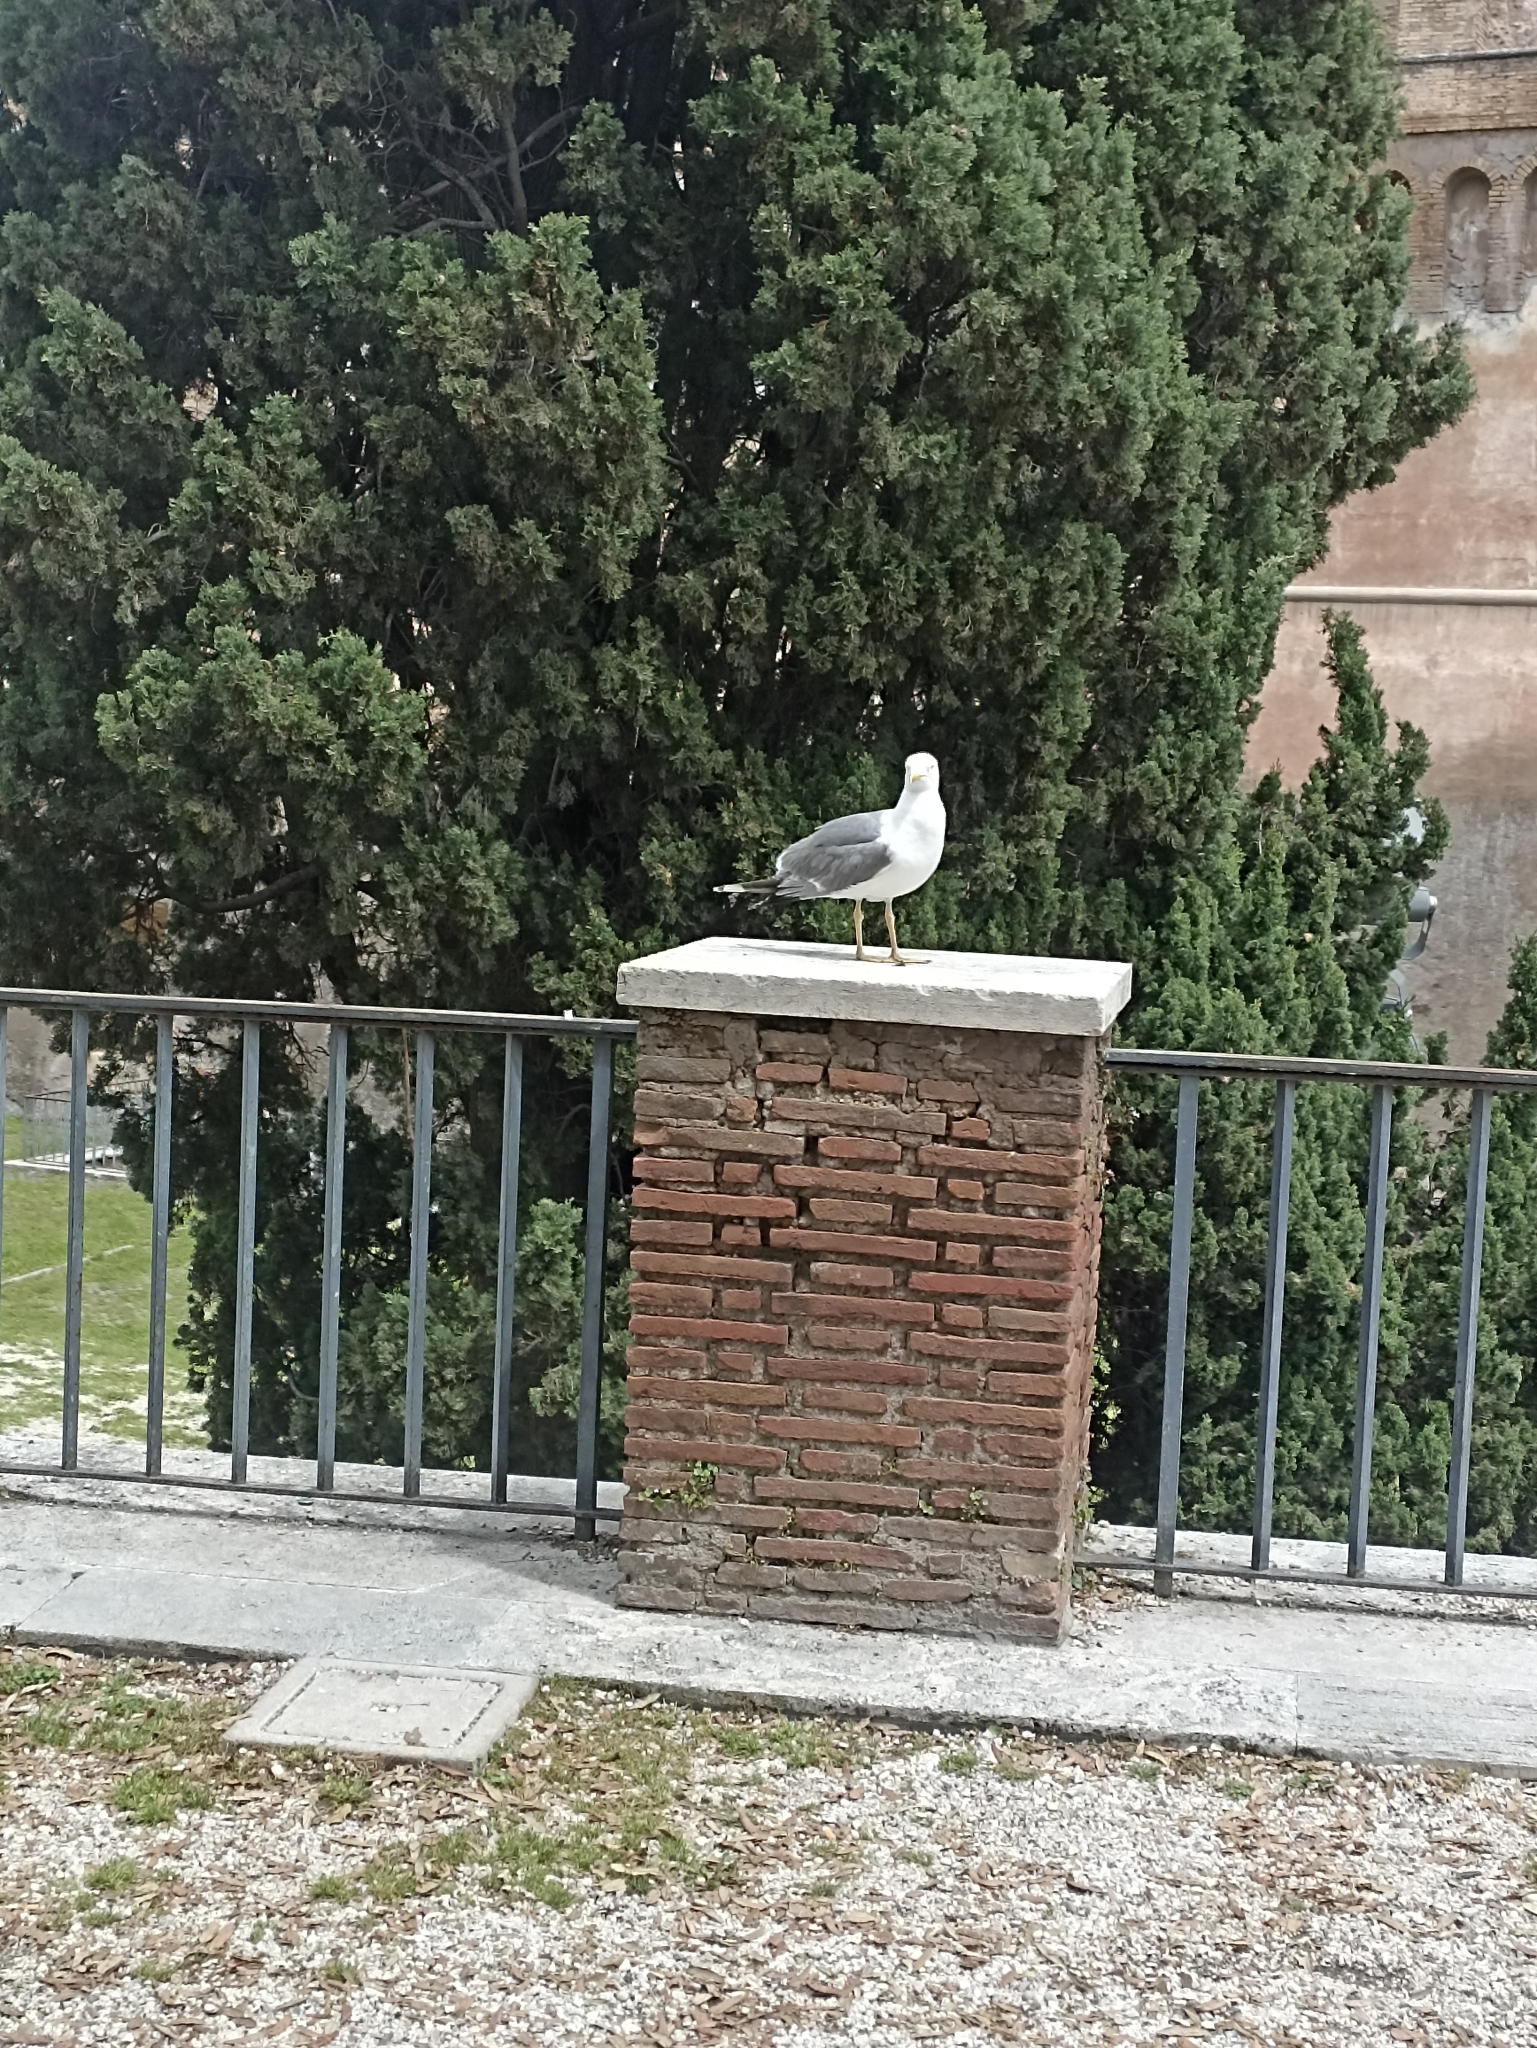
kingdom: Animalia
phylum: Chordata
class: Aves
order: Charadriiformes
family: Laridae
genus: Larus
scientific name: Larus michahellis
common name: Yellow-legged gull
